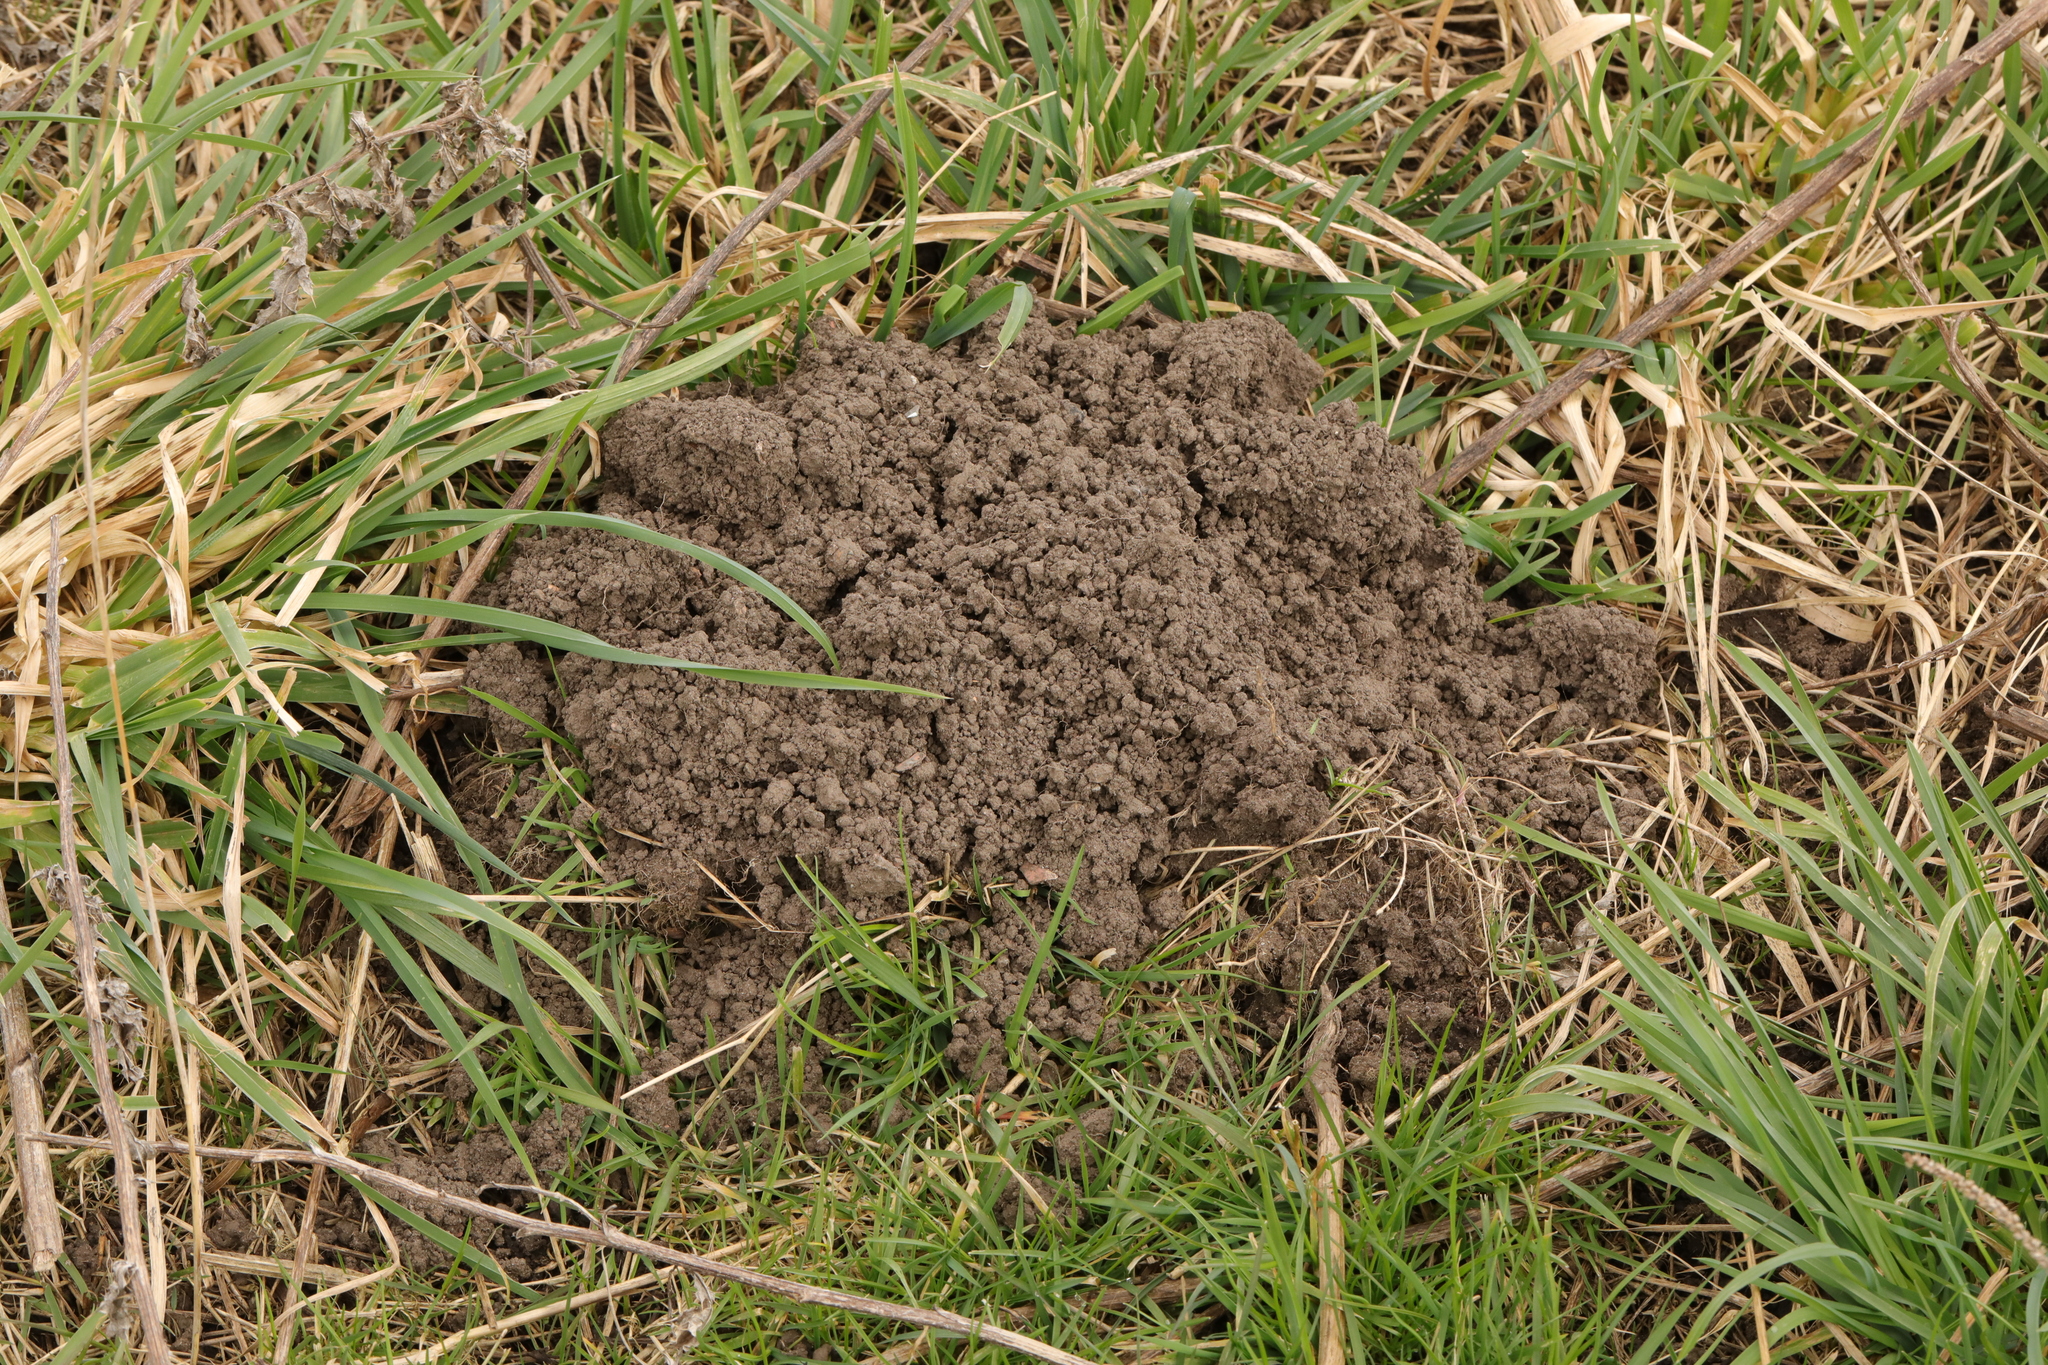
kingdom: Animalia
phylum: Chordata
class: Mammalia
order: Soricomorpha
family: Talpidae
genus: Talpa
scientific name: Talpa europaea
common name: European mole
